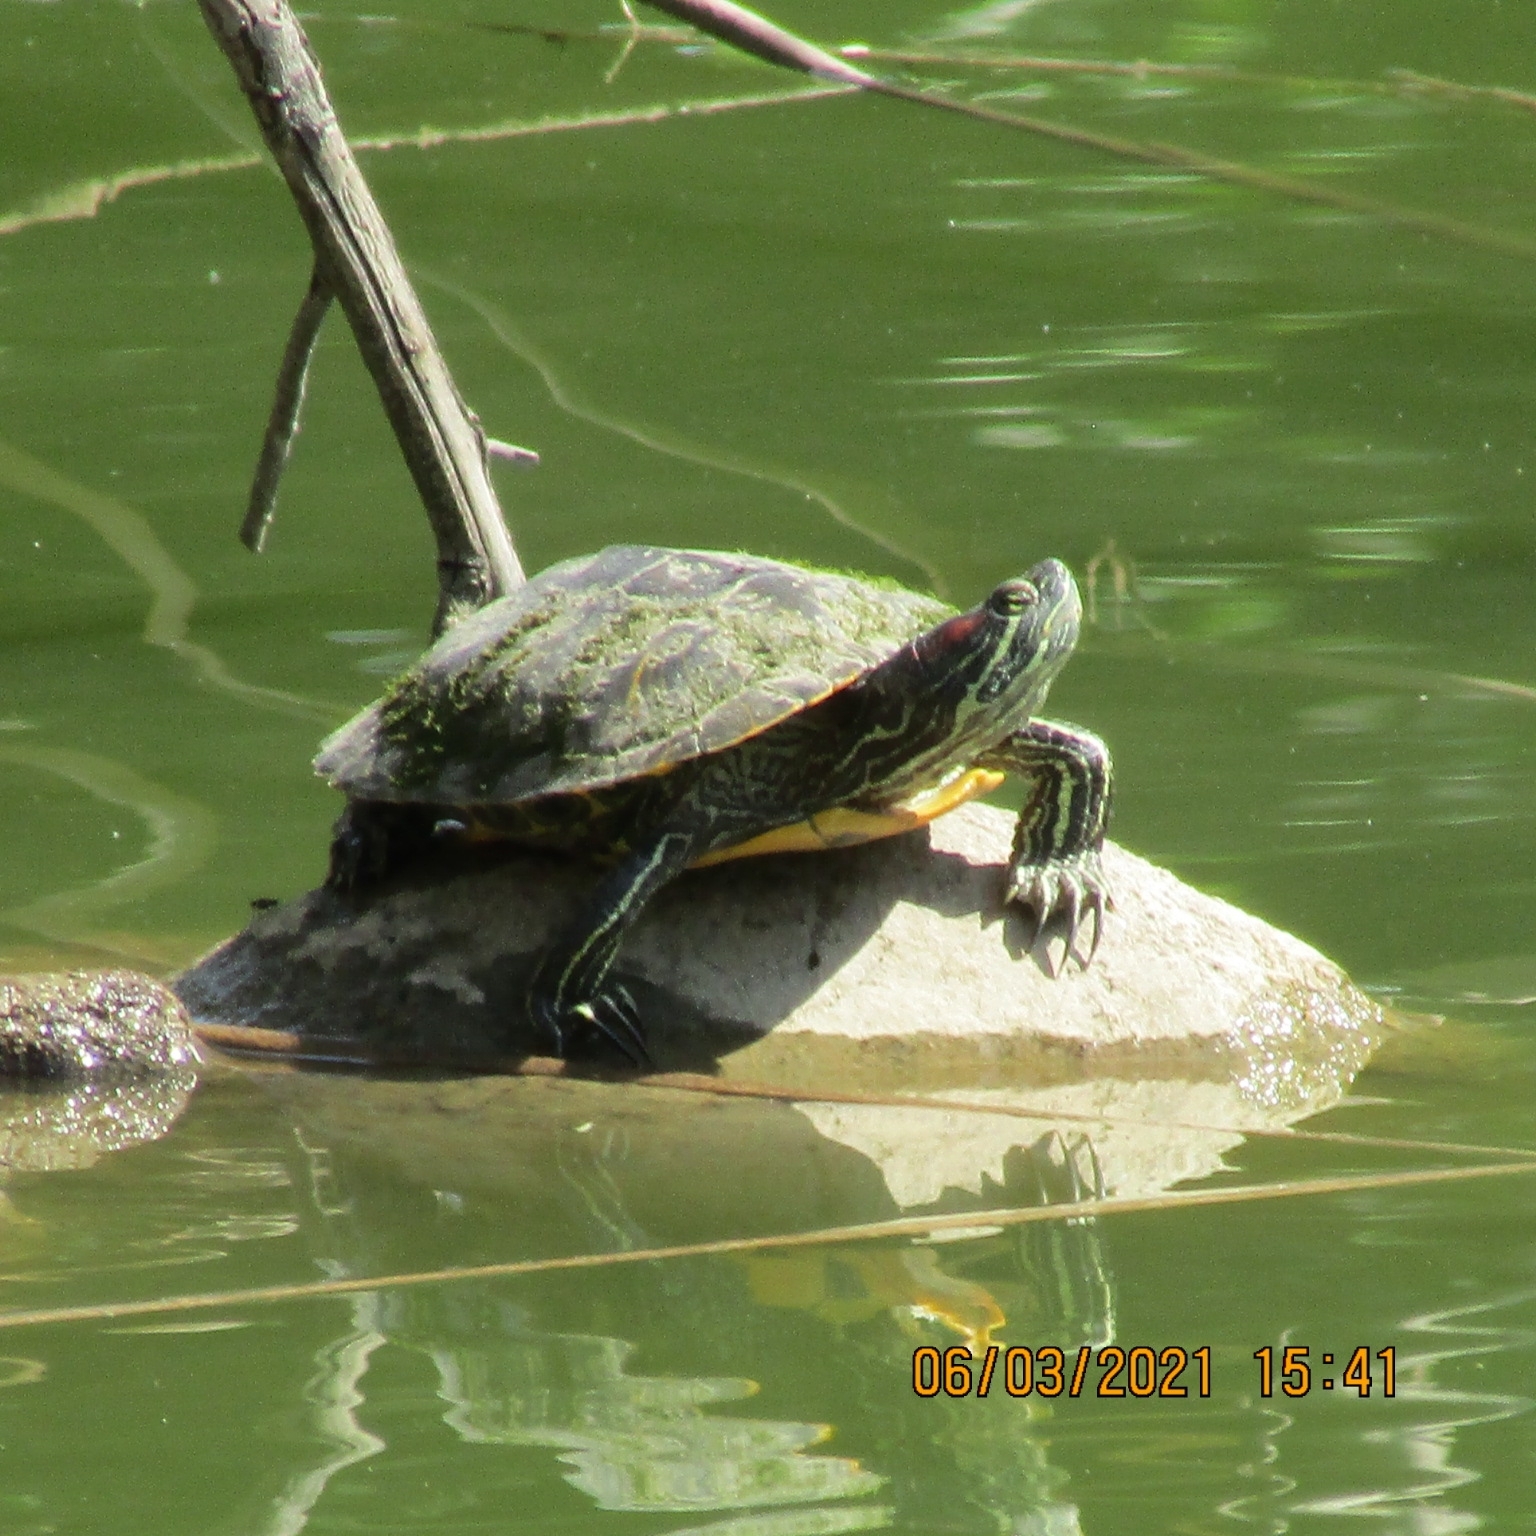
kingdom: Animalia
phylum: Chordata
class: Testudines
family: Emydidae
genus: Trachemys
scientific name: Trachemys scripta
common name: Slider
